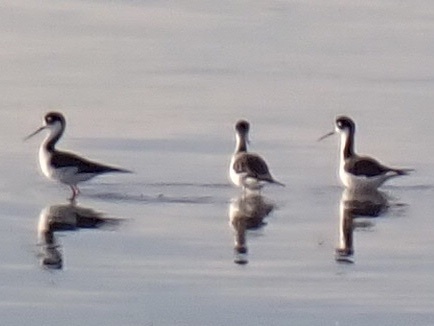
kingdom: Animalia
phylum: Chordata
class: Aves
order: Charadriiformes
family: Recurvirostridae
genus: Himantopus
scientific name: Himantopus mexicanus
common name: Black-necked stilt
